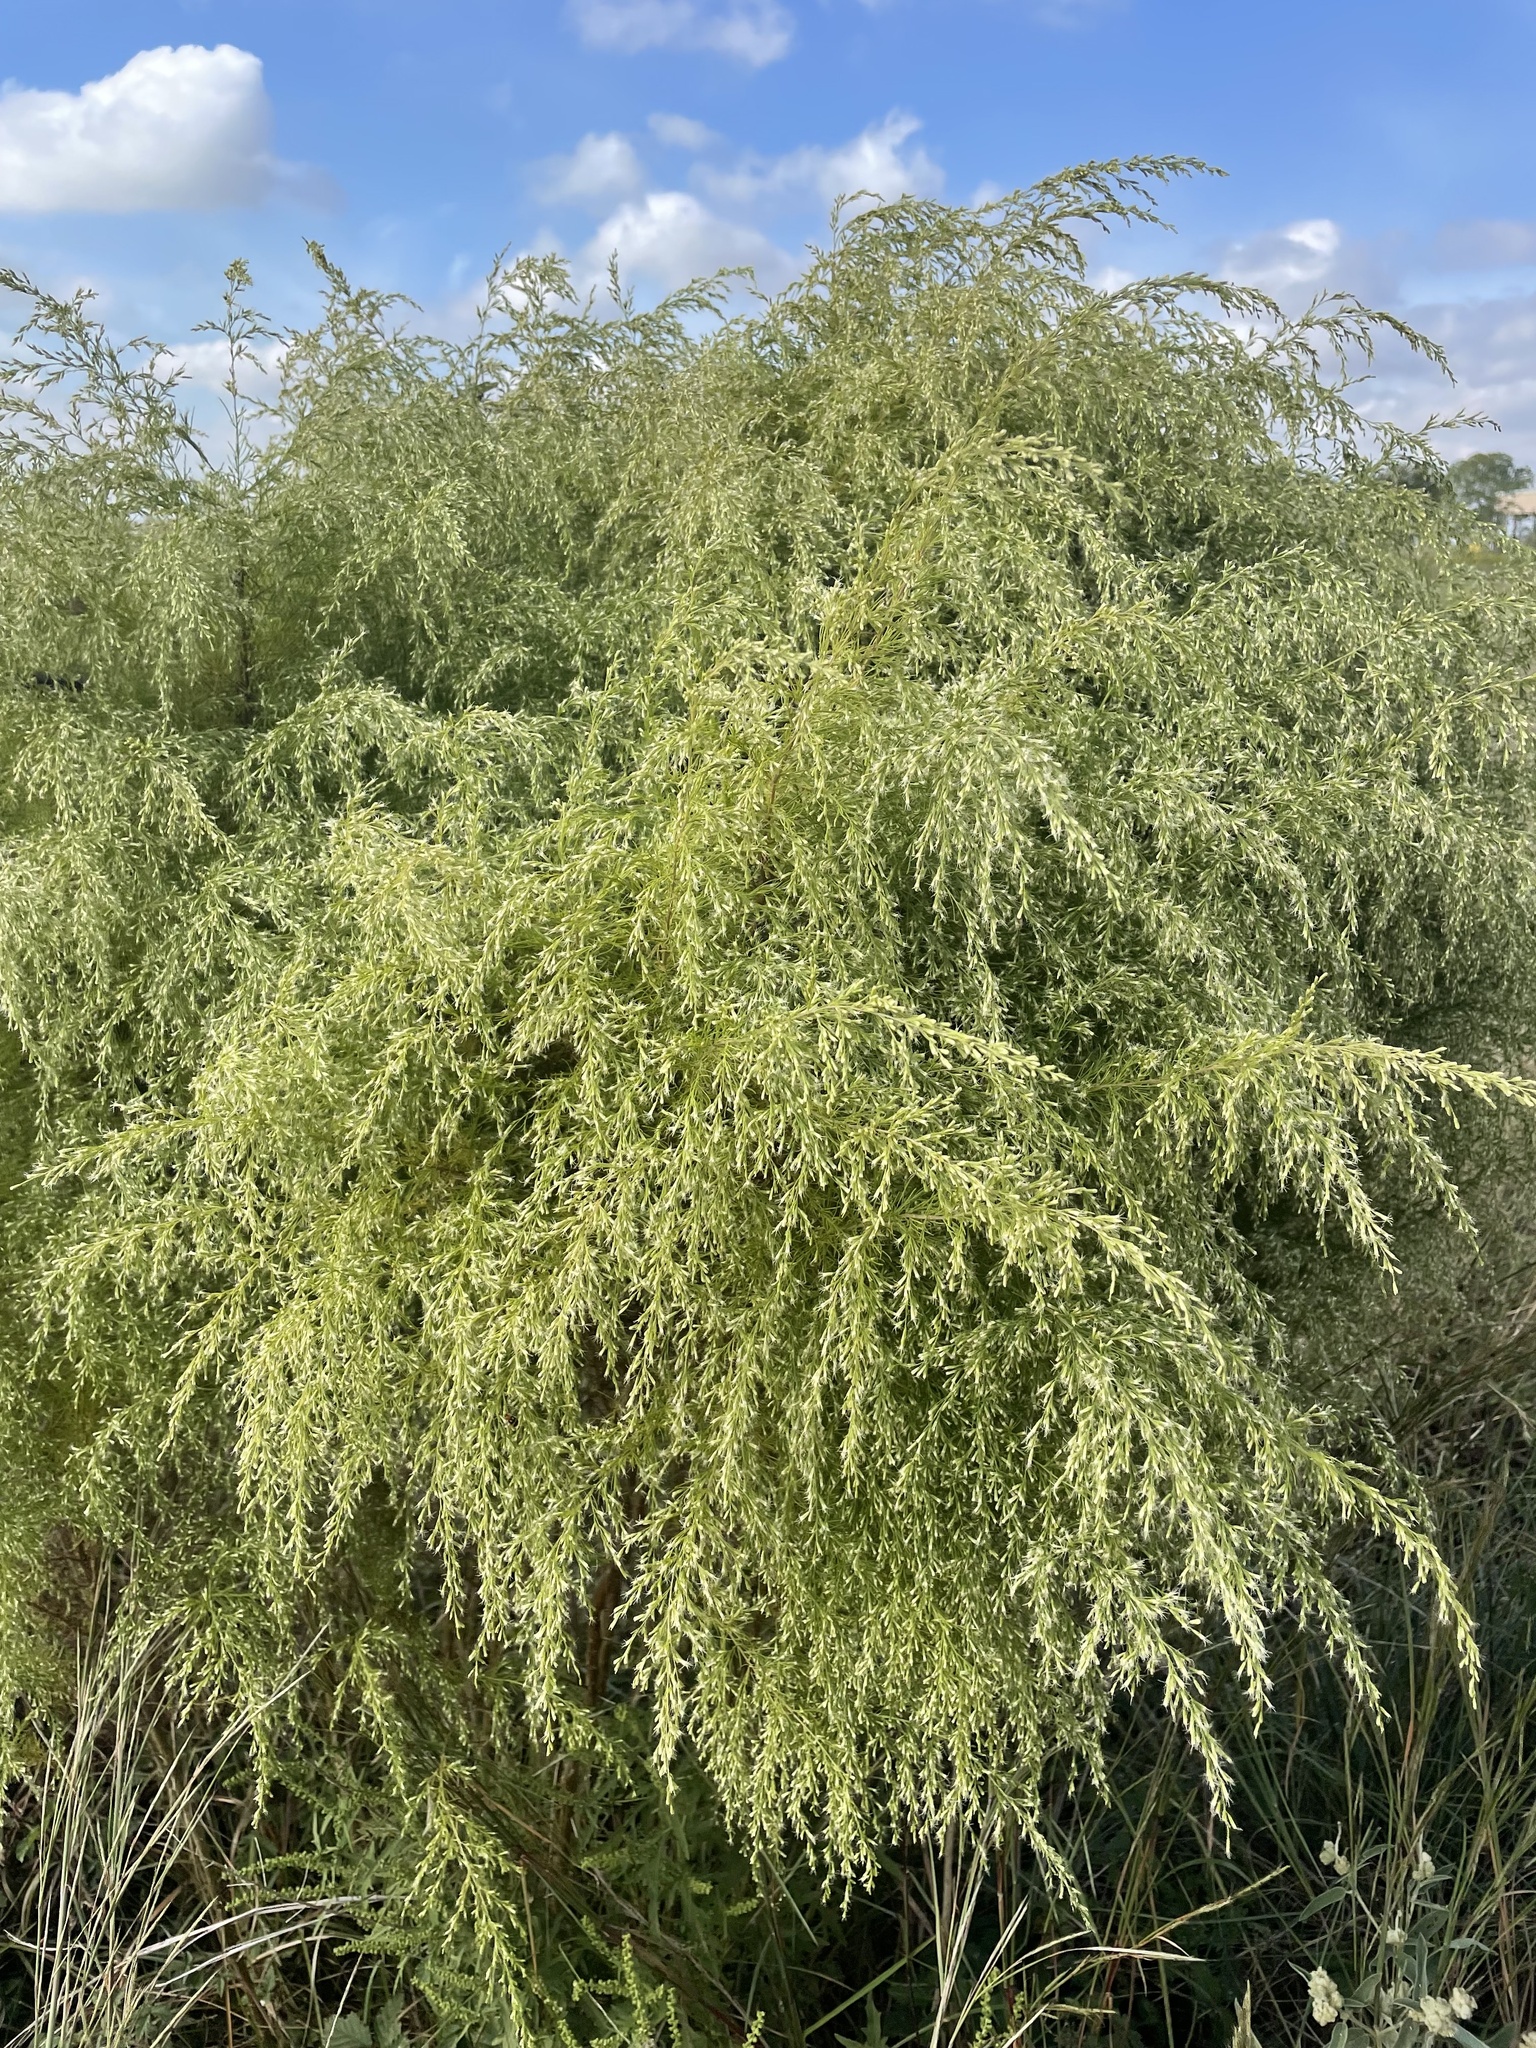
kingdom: Plantae
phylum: Tracheophyta
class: Magnoliopsida
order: Asterales
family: Asteraceae
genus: Eupatorium
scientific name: Eupatorium capillifolium
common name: Dog-fennel
